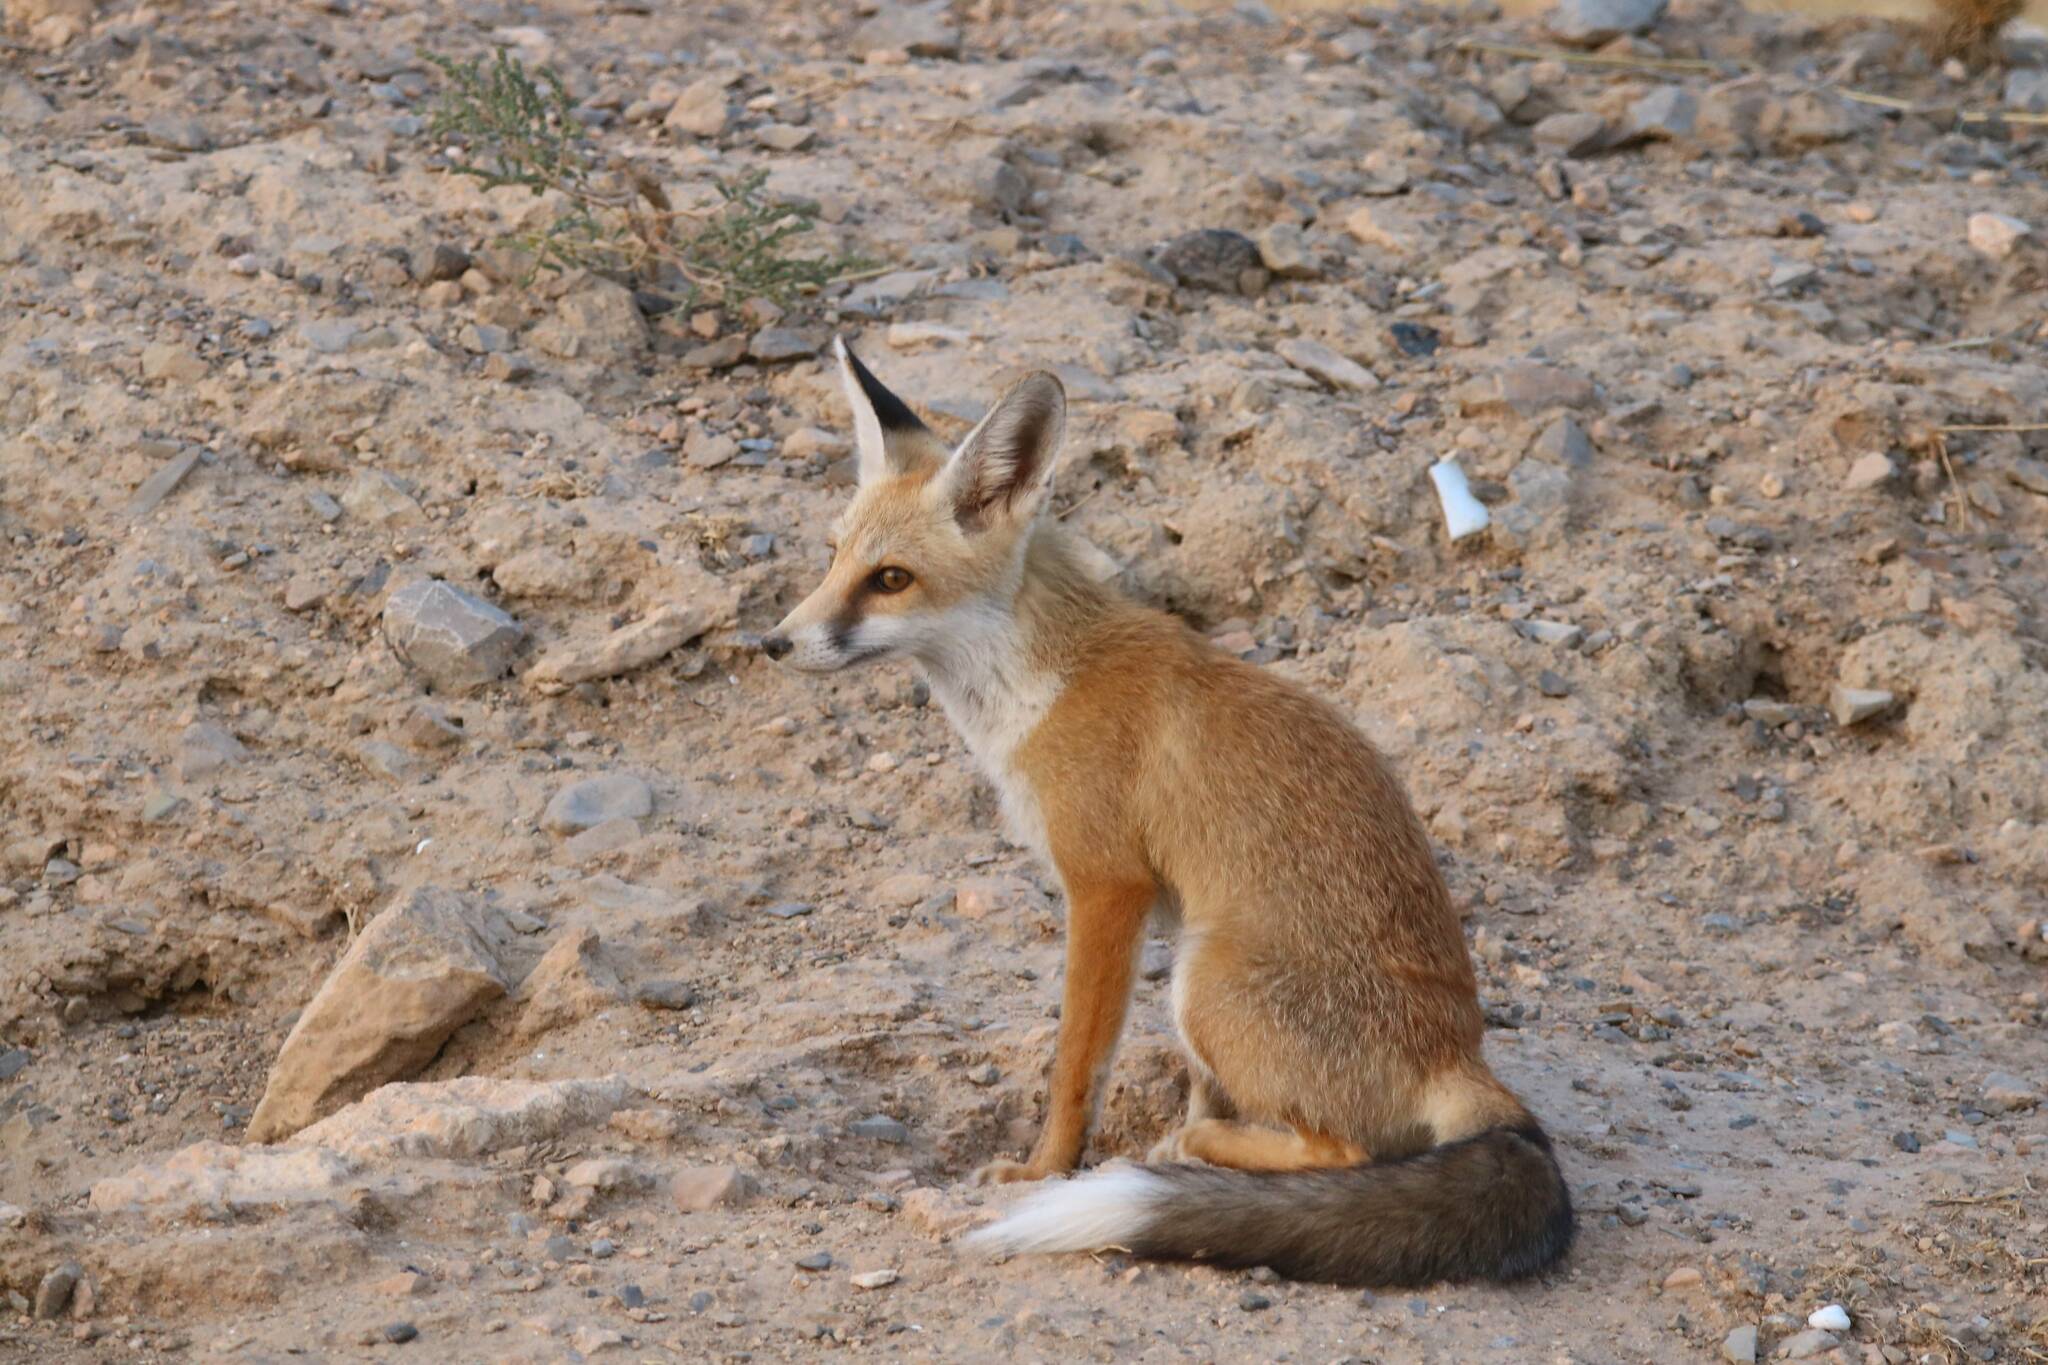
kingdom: Animalia
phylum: Chordata
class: Mammalia
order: Carnivora
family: Canidae
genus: Vulpes
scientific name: Vulpes vulpes
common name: Red fox
